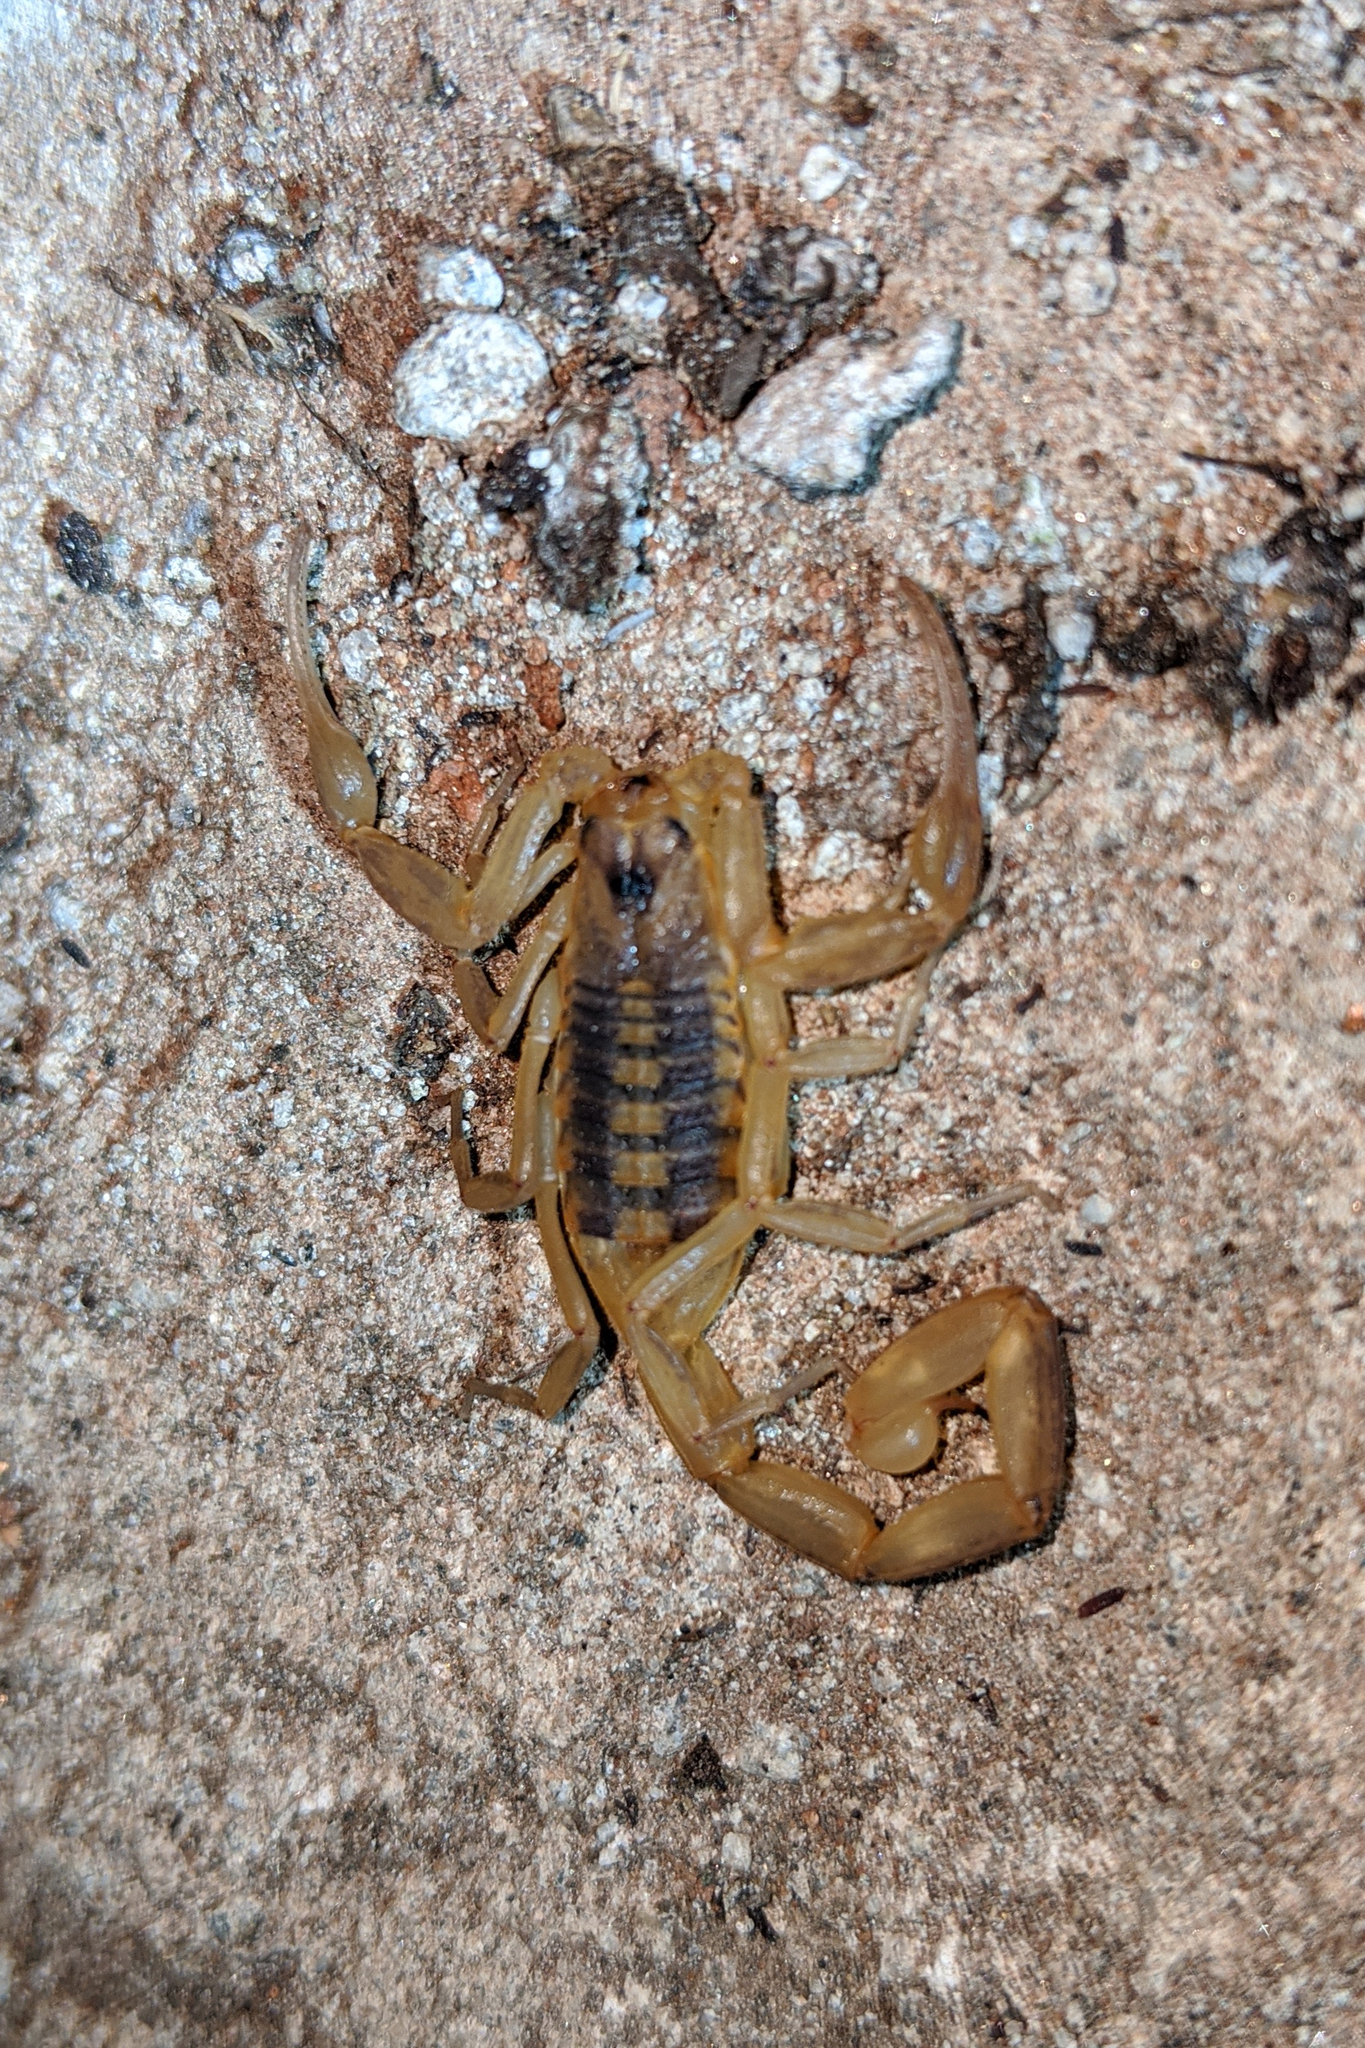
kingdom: Animalia
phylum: Arthropoda
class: Arachnida
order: Scorpiones
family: Buthidae
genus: Centruroides
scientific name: Centruroides exilicauda
